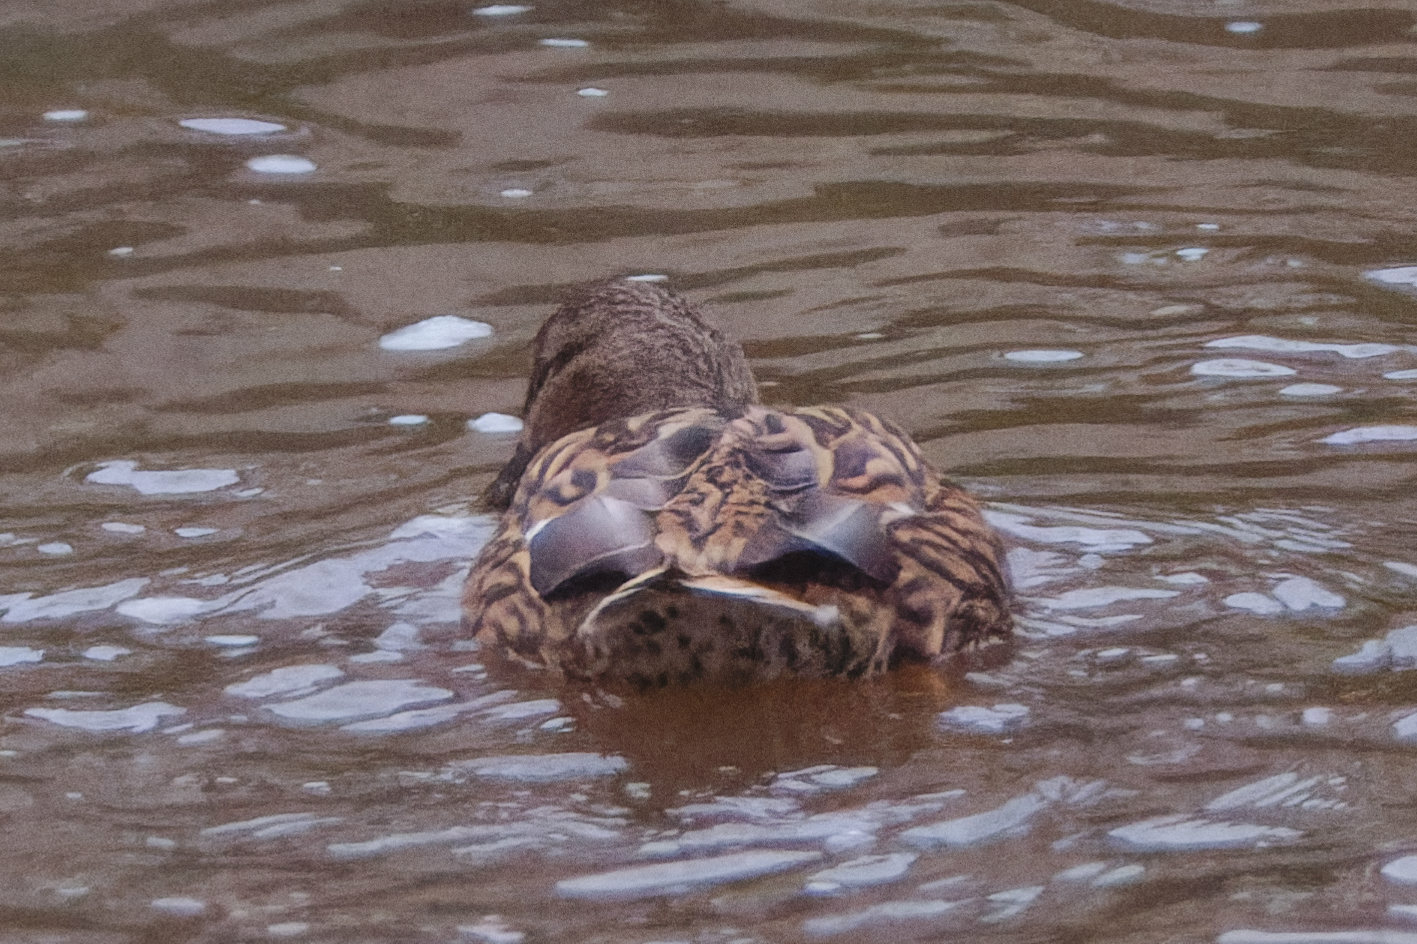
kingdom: Animalia
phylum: Chordata
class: Aves
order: Anseriformes
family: Anatidae
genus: Anas
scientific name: Anas platyrhynchos
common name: Mallard
